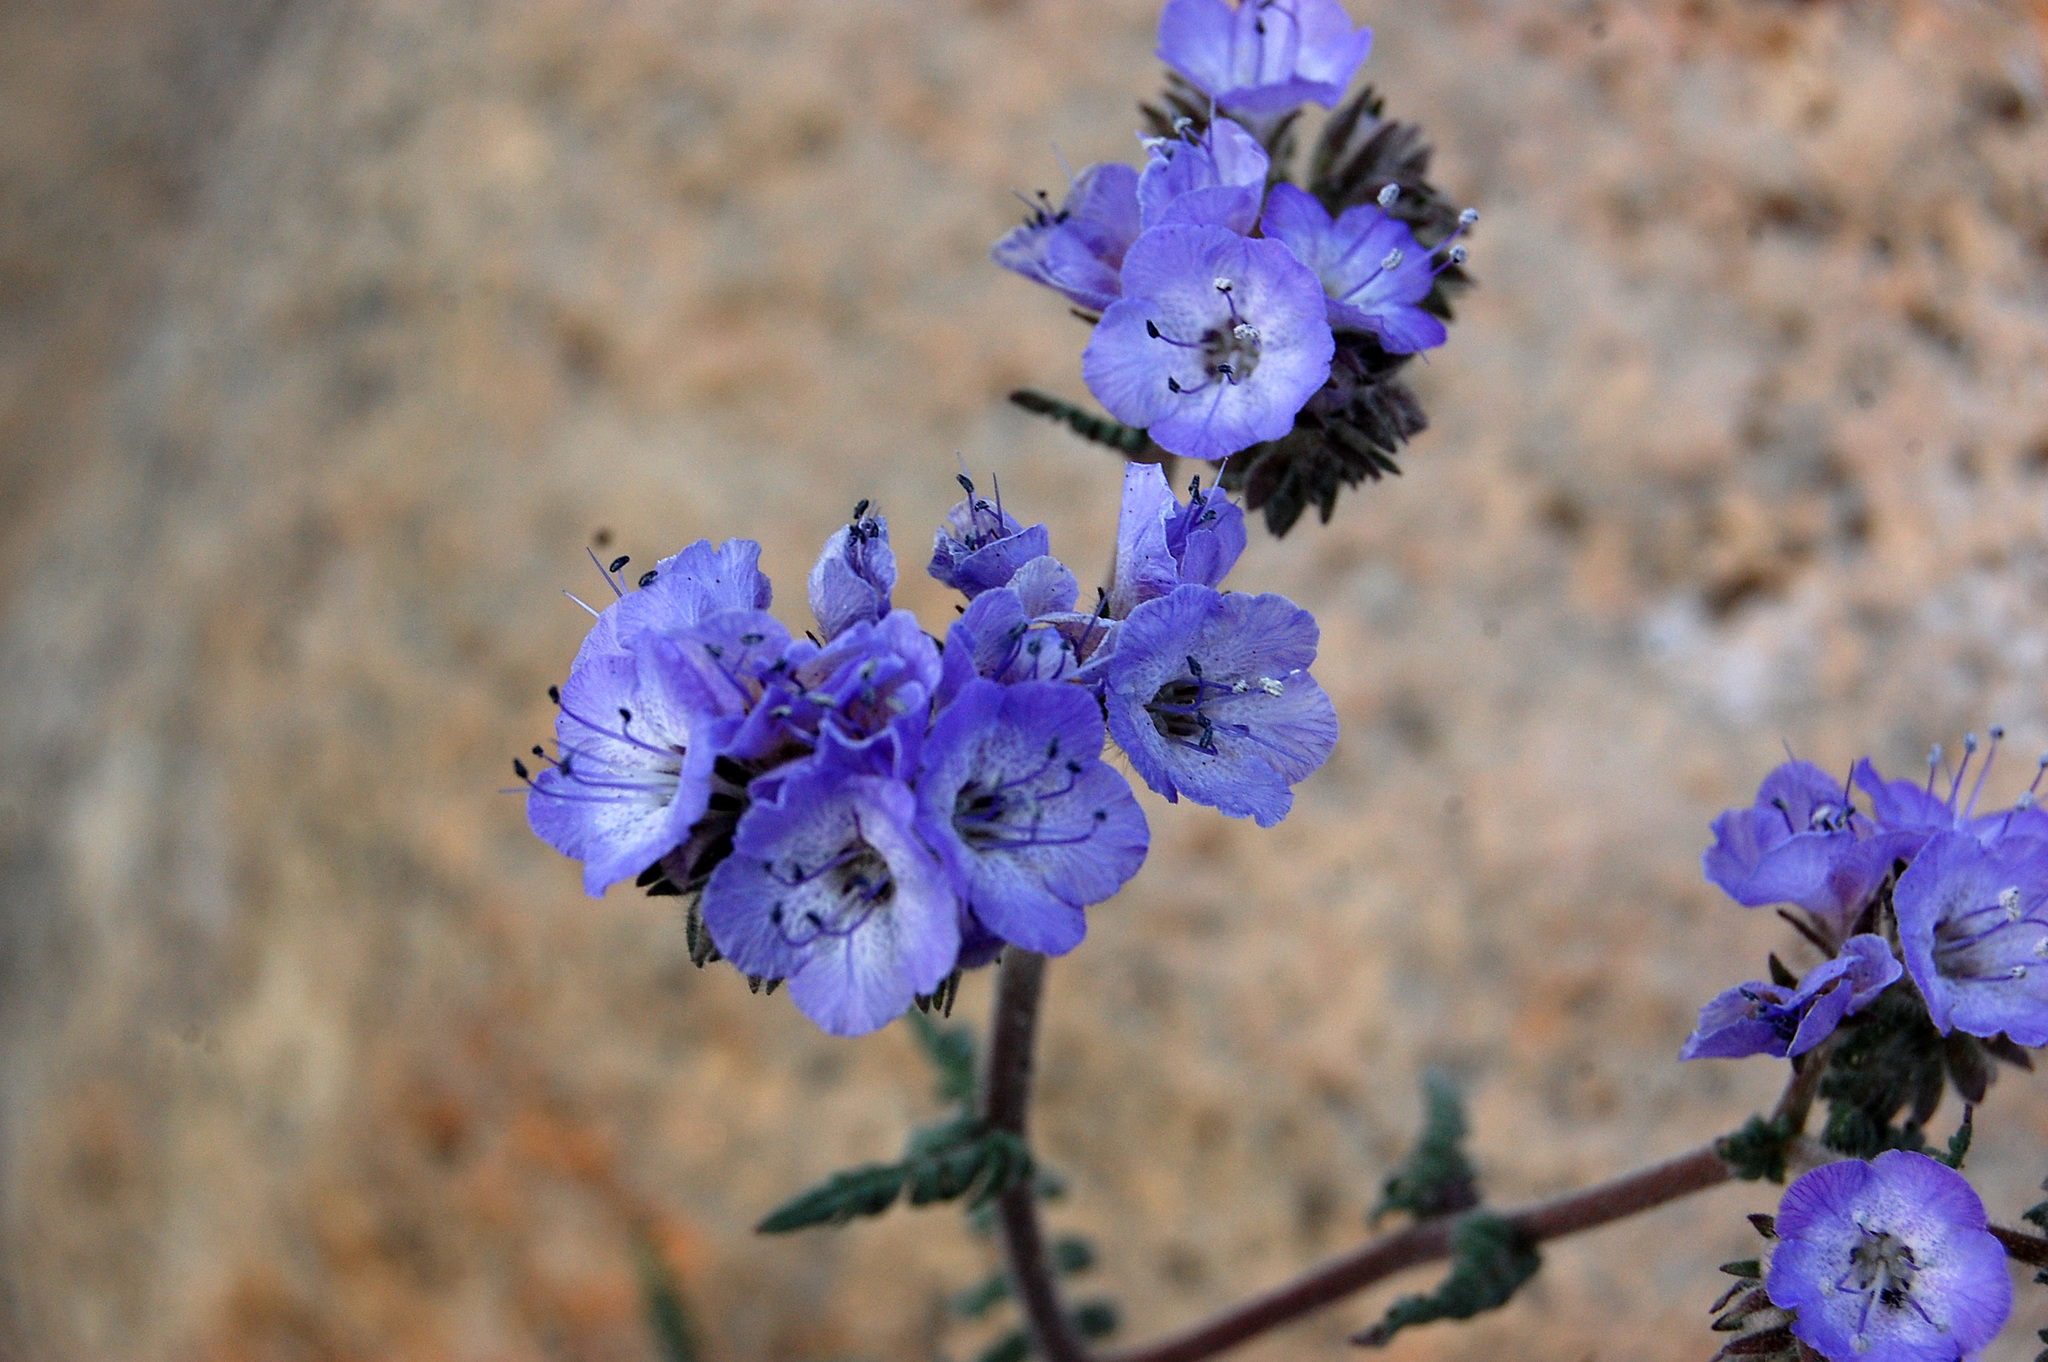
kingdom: Plantae
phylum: Tracheophyta
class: Magnoliopsida
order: Boraginales
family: Hydrophyllaceae
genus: Phacelia
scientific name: Phacelia distans
